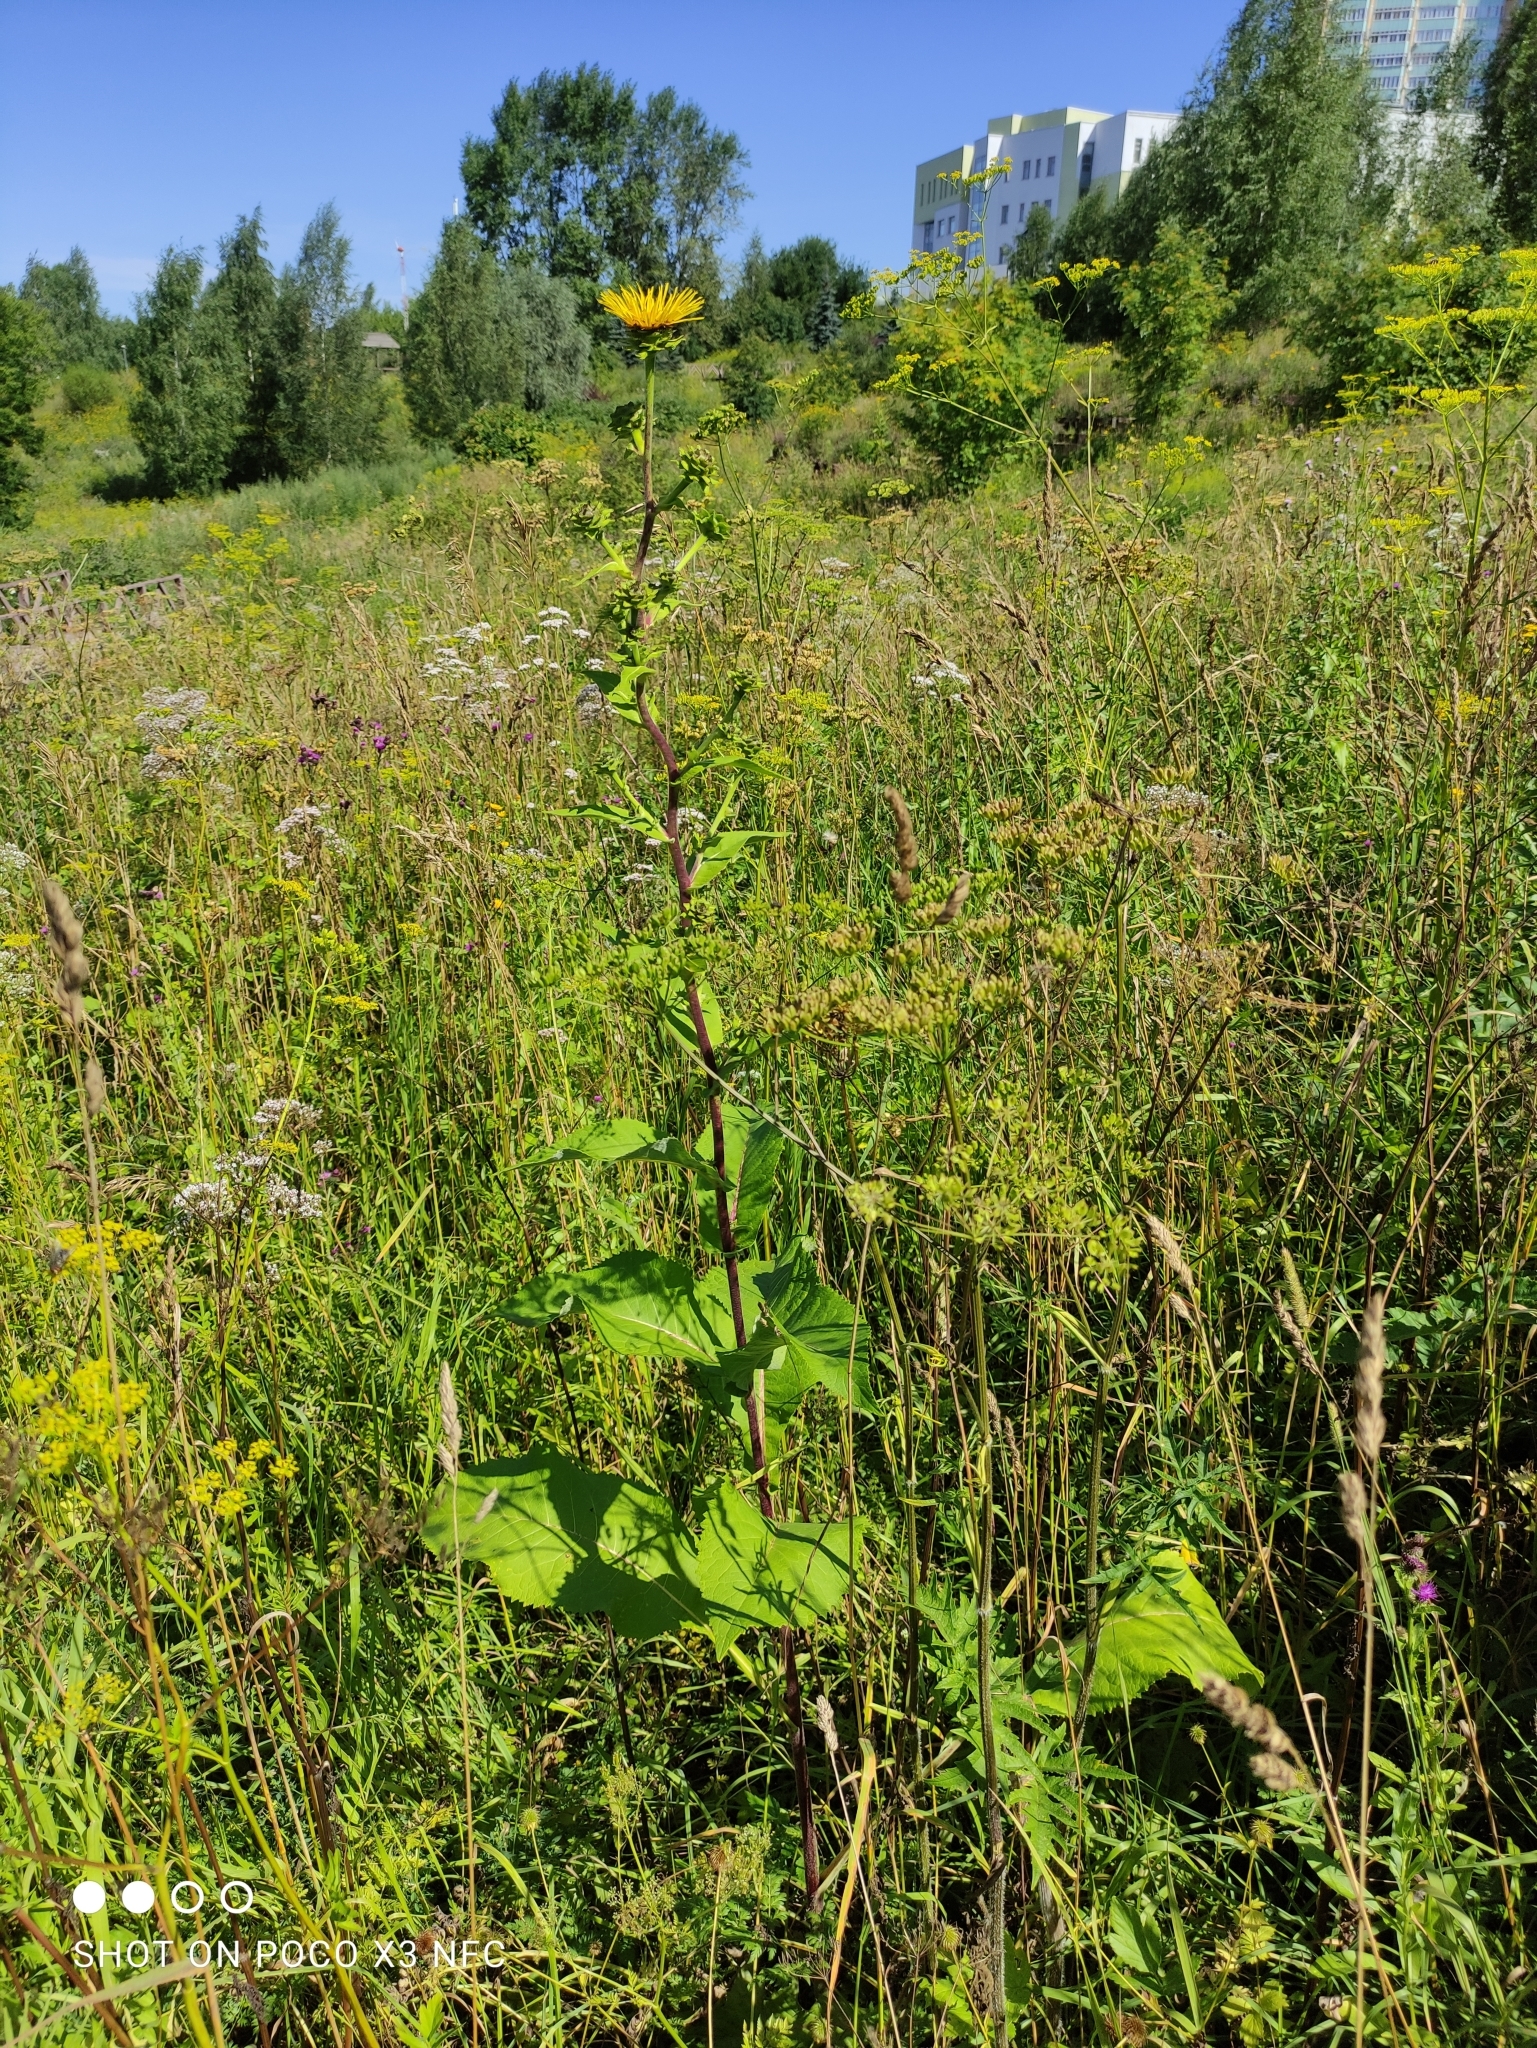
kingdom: Plantae
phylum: Tracheophyta
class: Magnoliopsida
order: Asterales
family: Asteraceae
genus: Inula
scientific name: Inula helenium
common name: Elecampane
